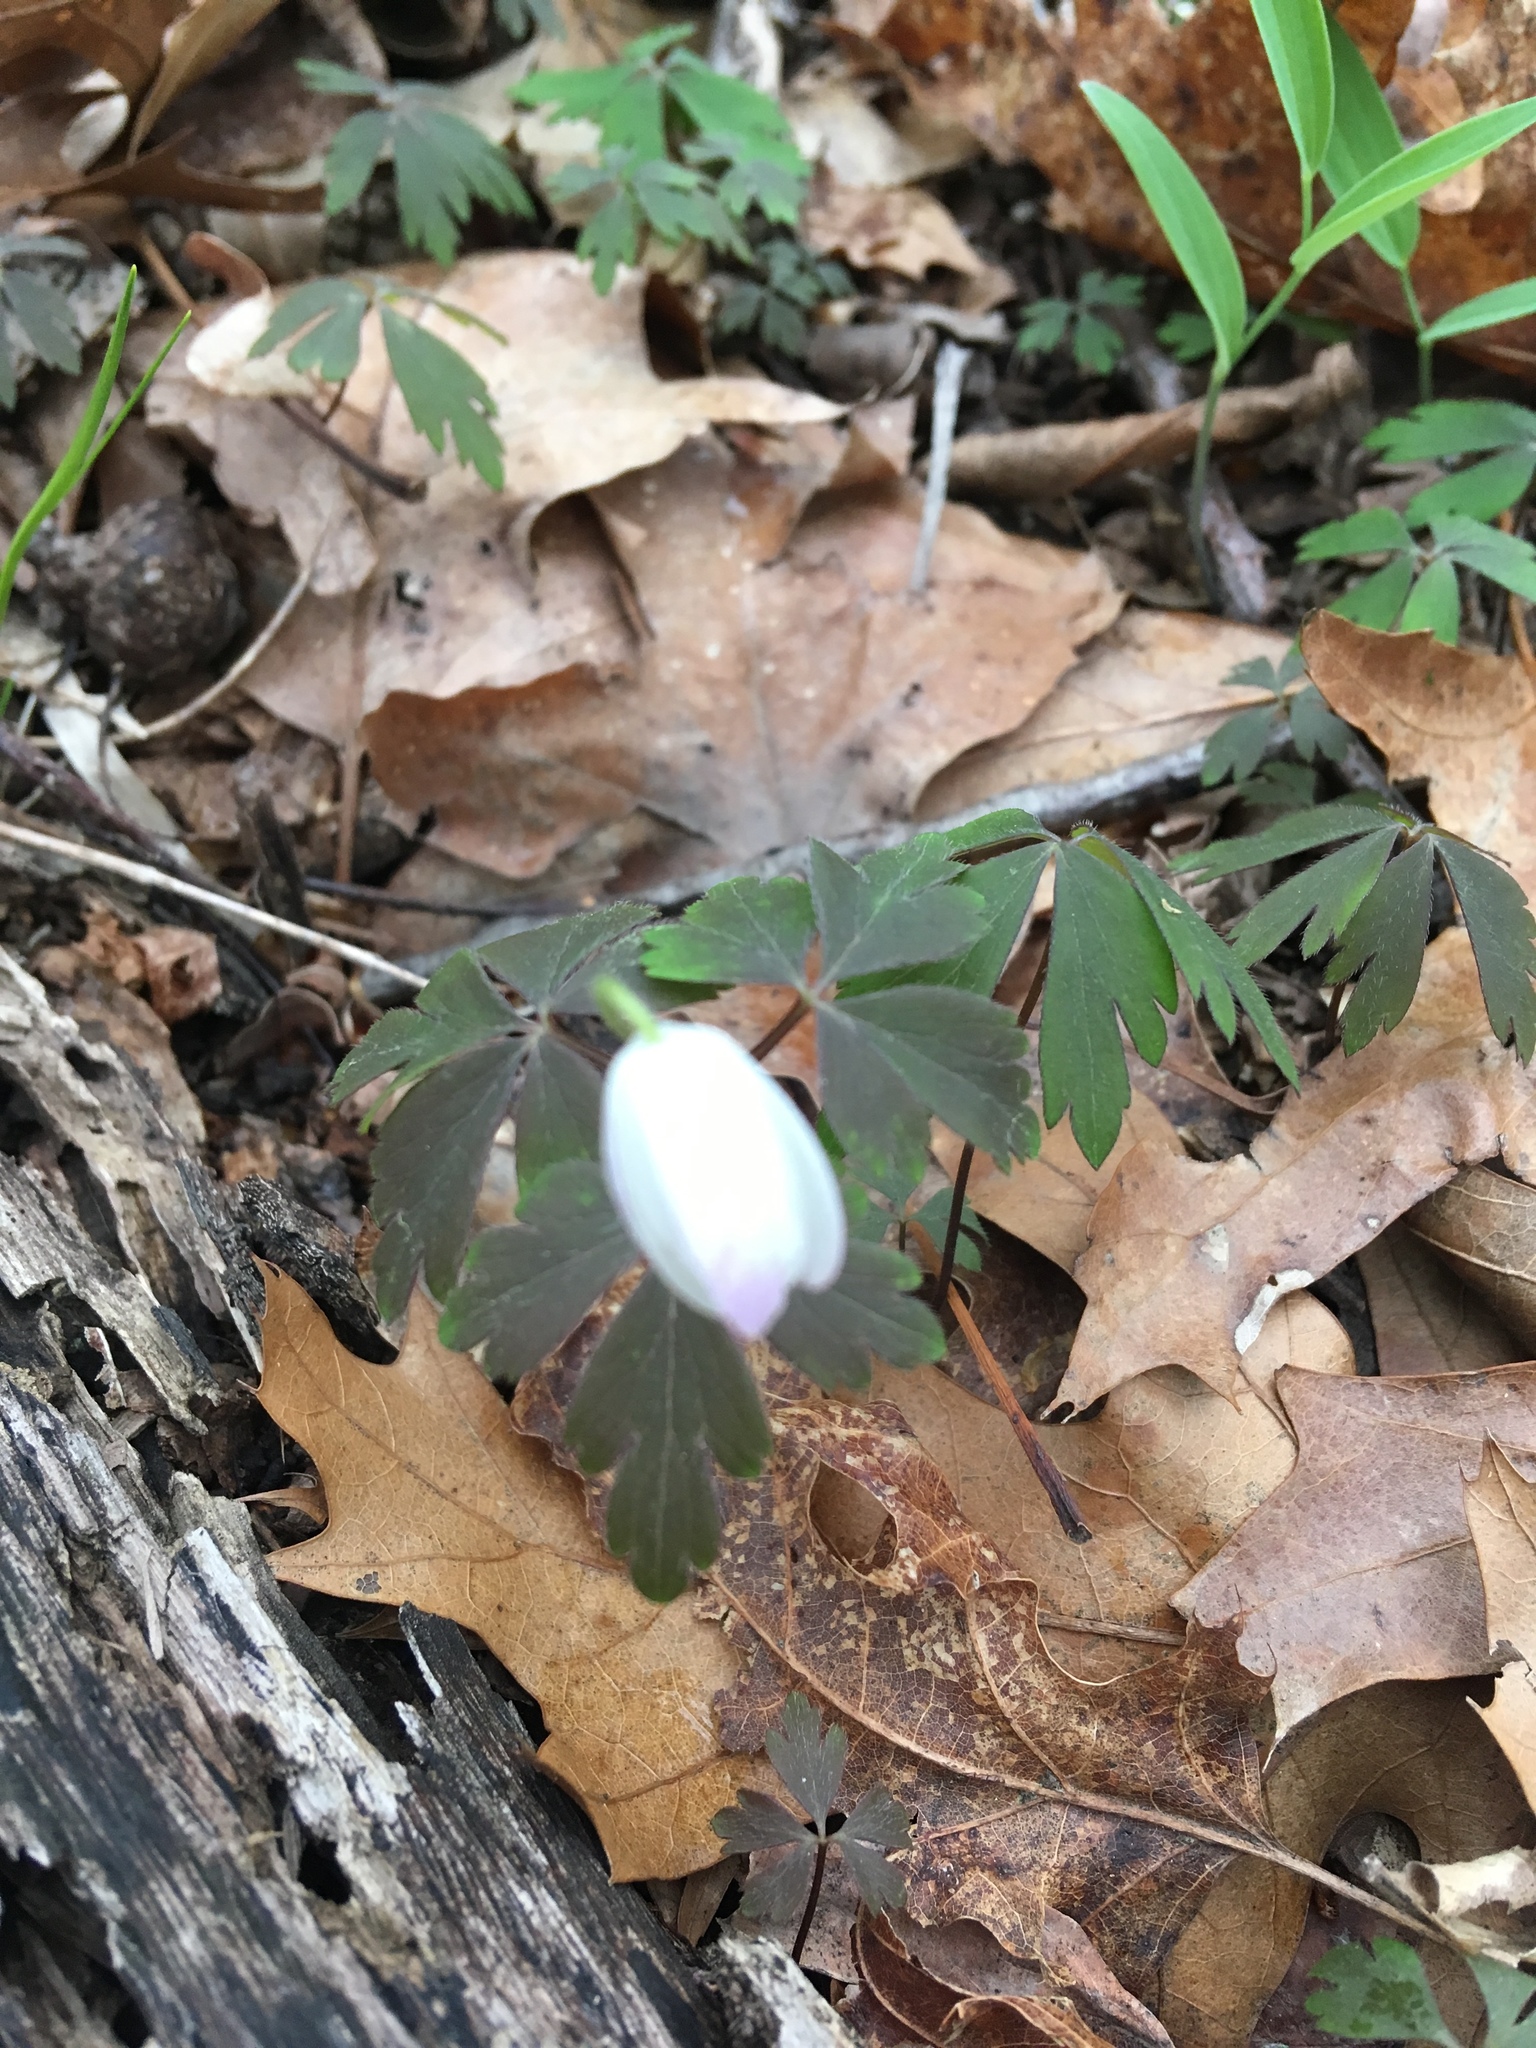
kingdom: Plantae
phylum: Tracheophyta
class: Magnoliopsida
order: Ranunculales
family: Ranunculaceae
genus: Anemone
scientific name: Anemone quinquefolia
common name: Wood anemone
